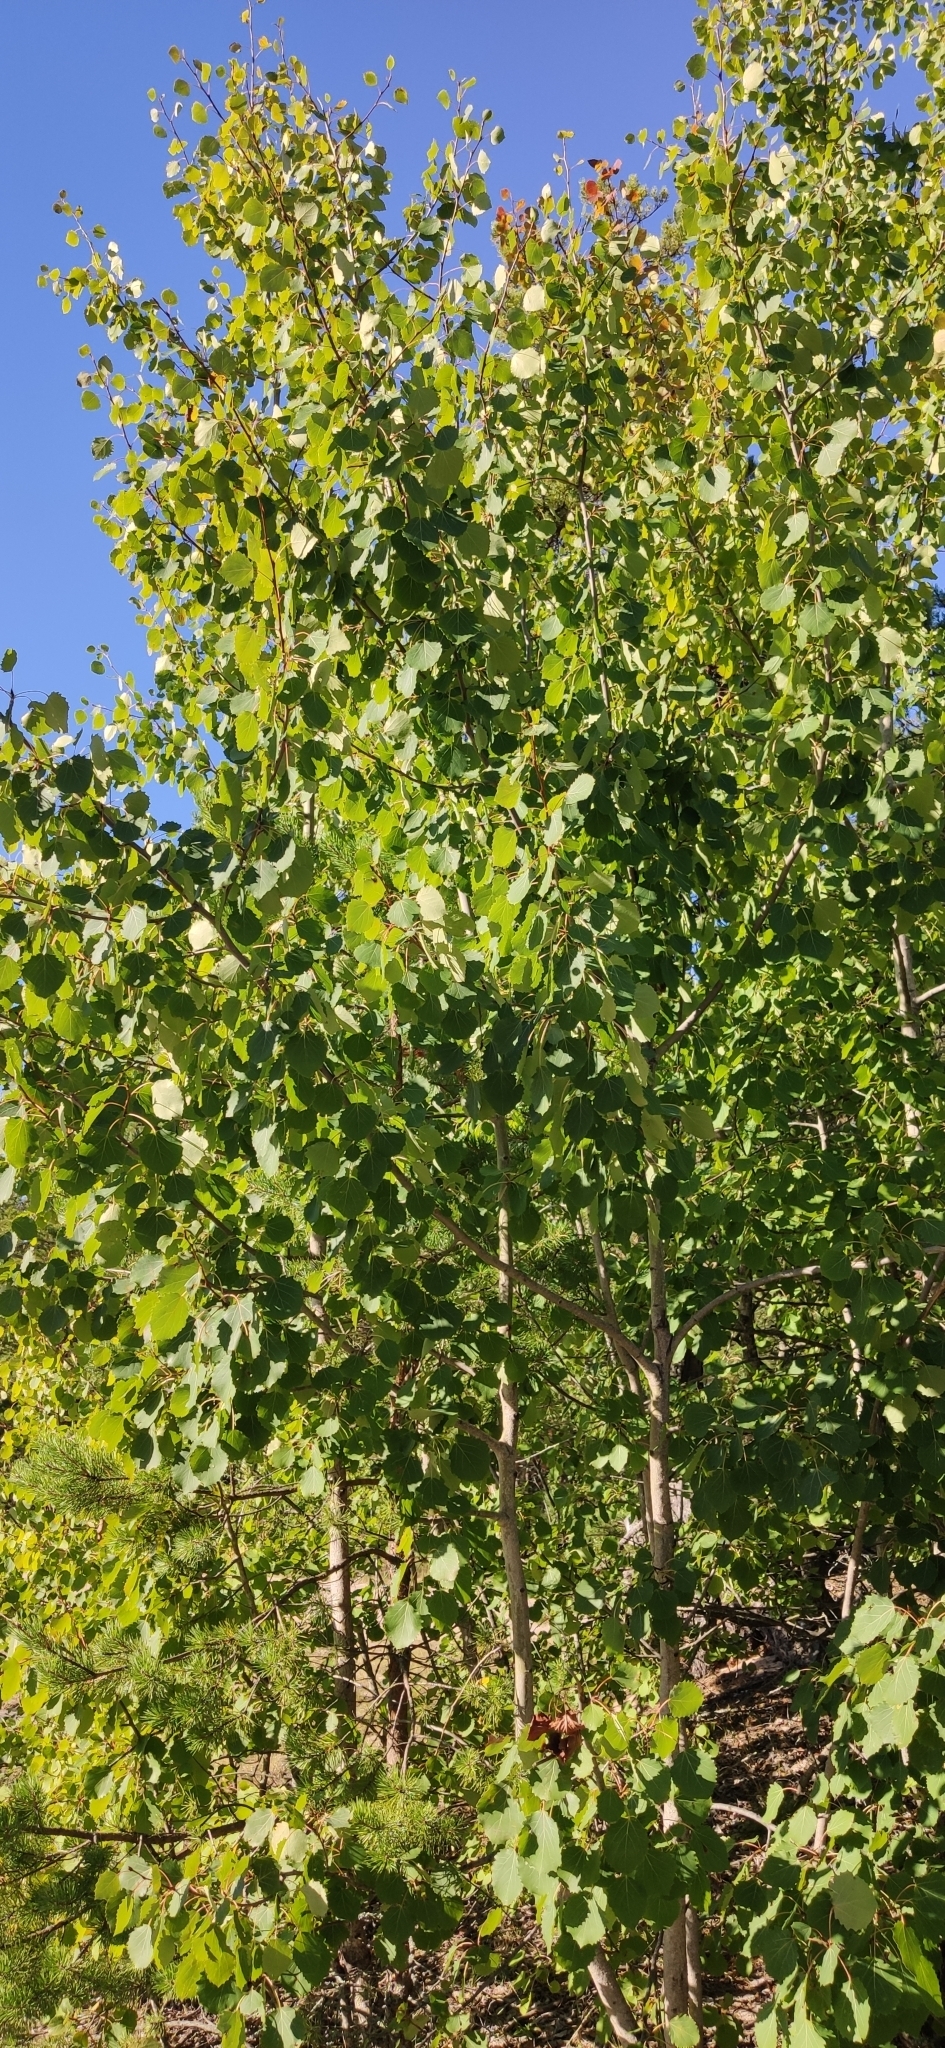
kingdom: Plantae
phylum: Tracheophyta
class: Magnoliopsida
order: Malpighiales
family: Salicaceae
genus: Populus
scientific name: Populus tremula
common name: European aspen
